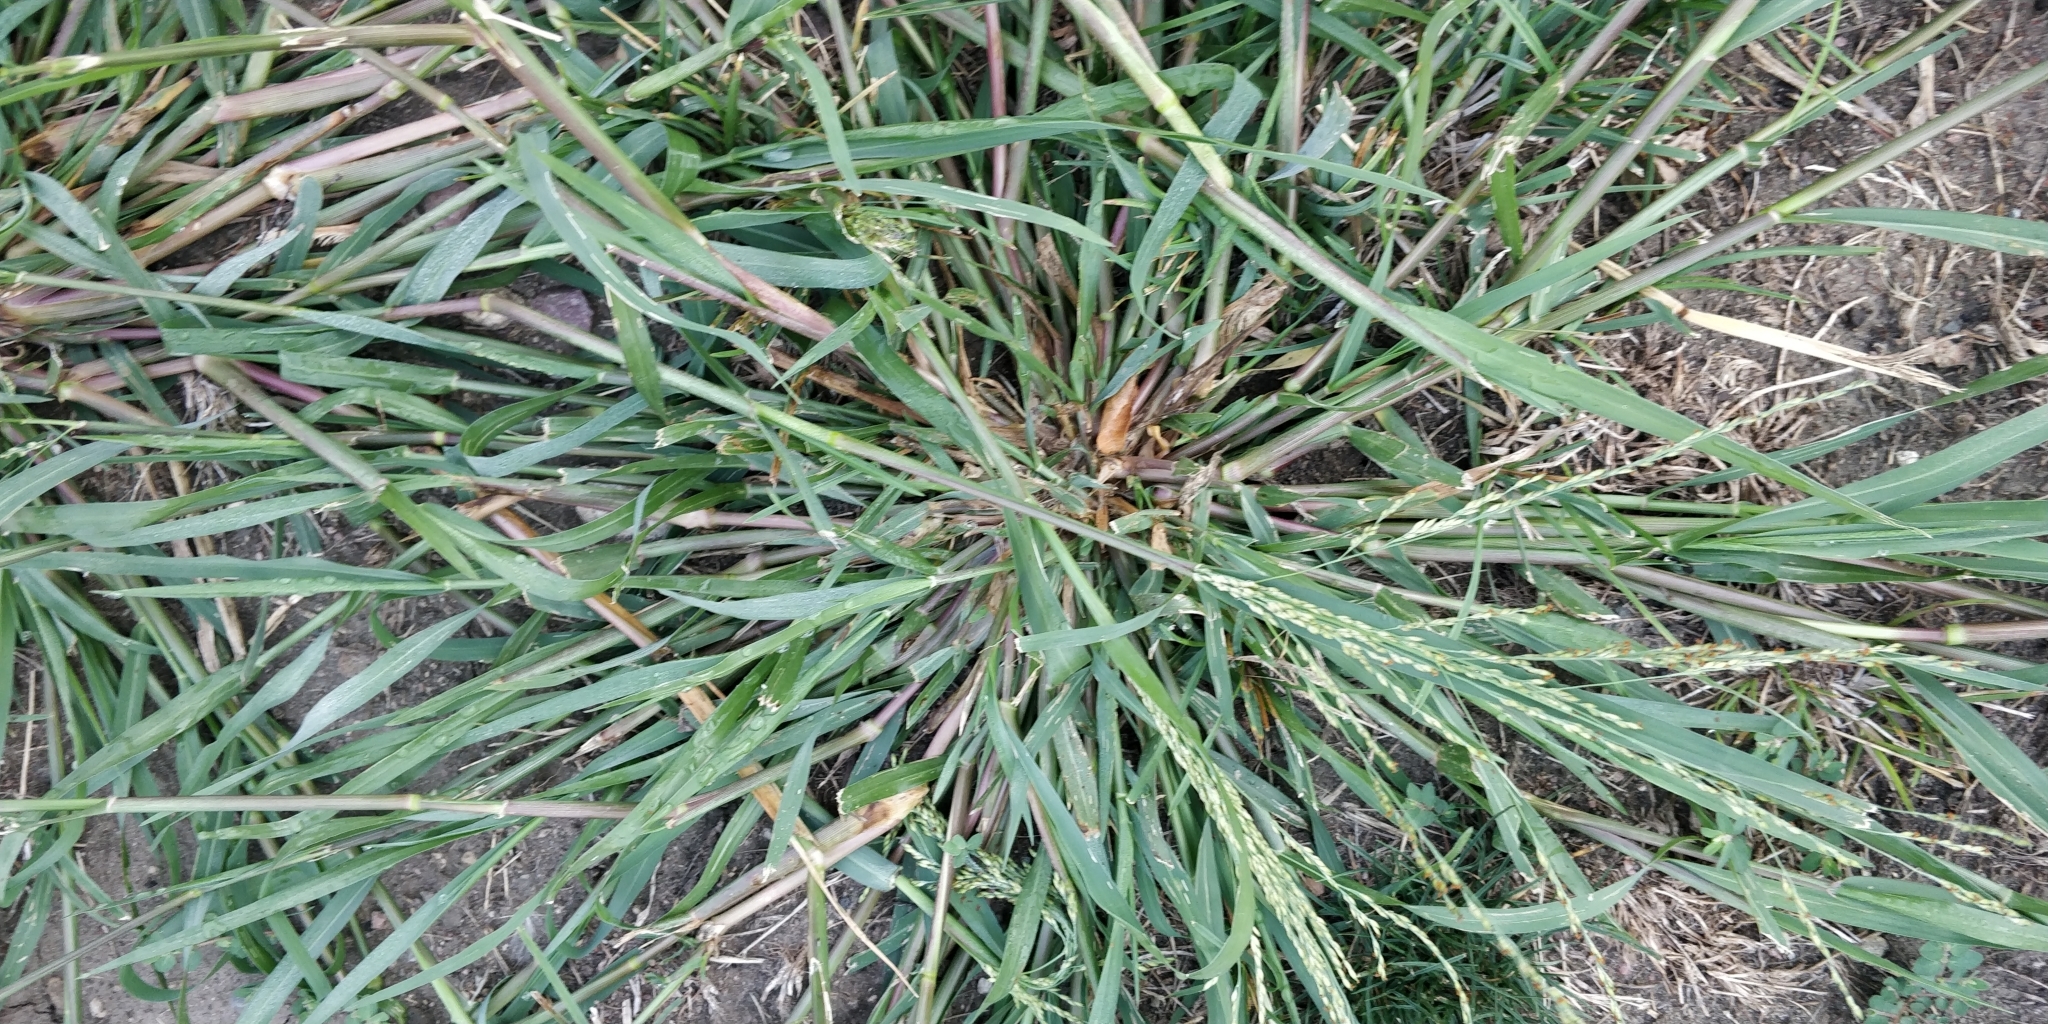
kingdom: Plantae
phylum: Tracheophyta
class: Liliopsida
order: Poales
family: Poaceae
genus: Panicum
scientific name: Panicum dichotomiflorum
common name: Autumn millet
